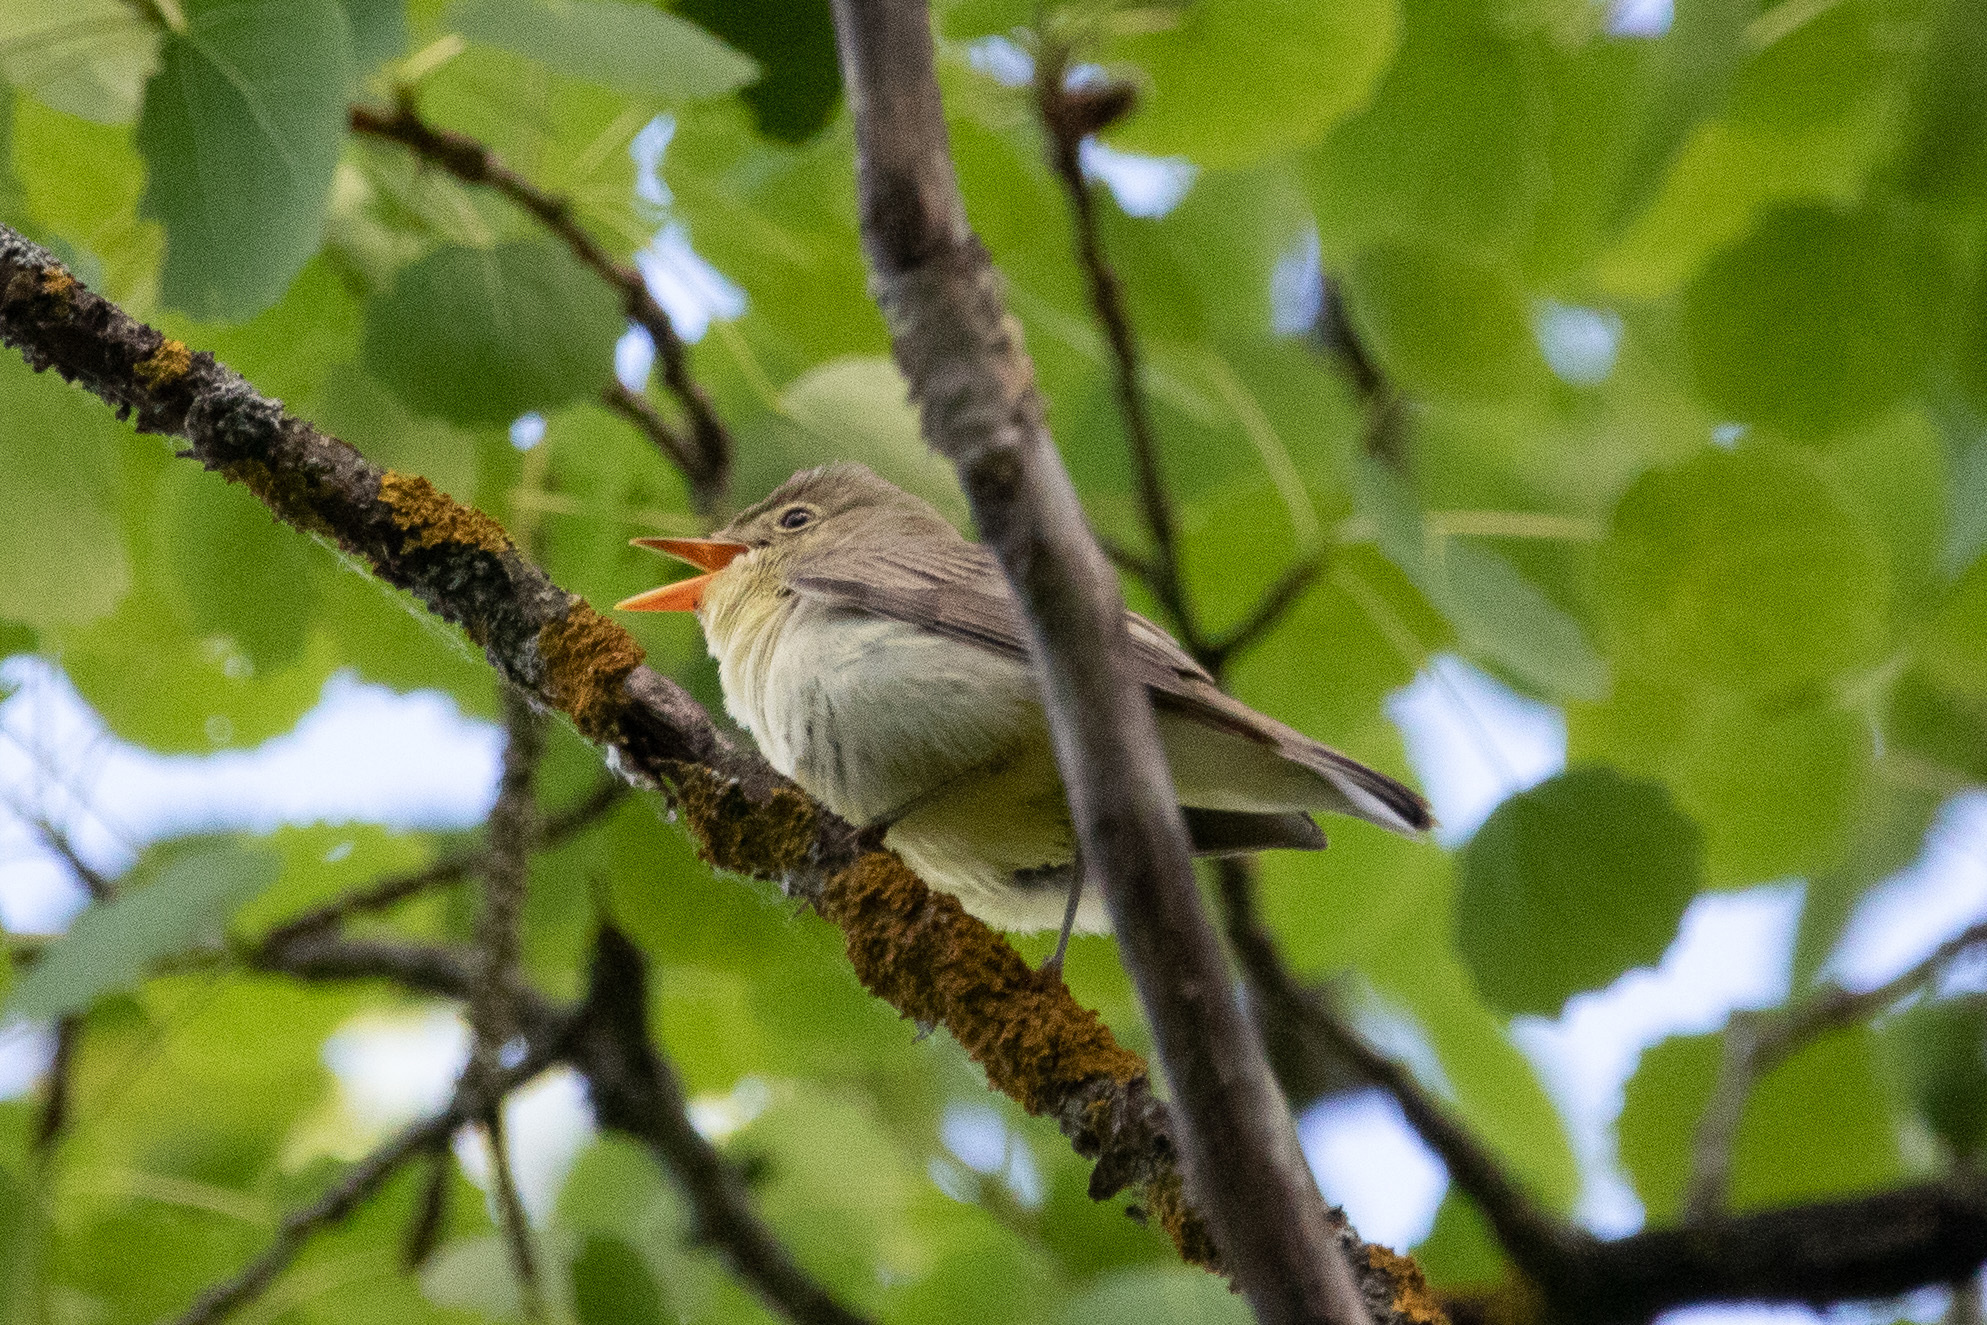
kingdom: Animalia
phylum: Chordata
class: Aves
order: Passeriformes
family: Acrocephalidae
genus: Hippolais
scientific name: Hippolais icterina
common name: Icterine warbler
